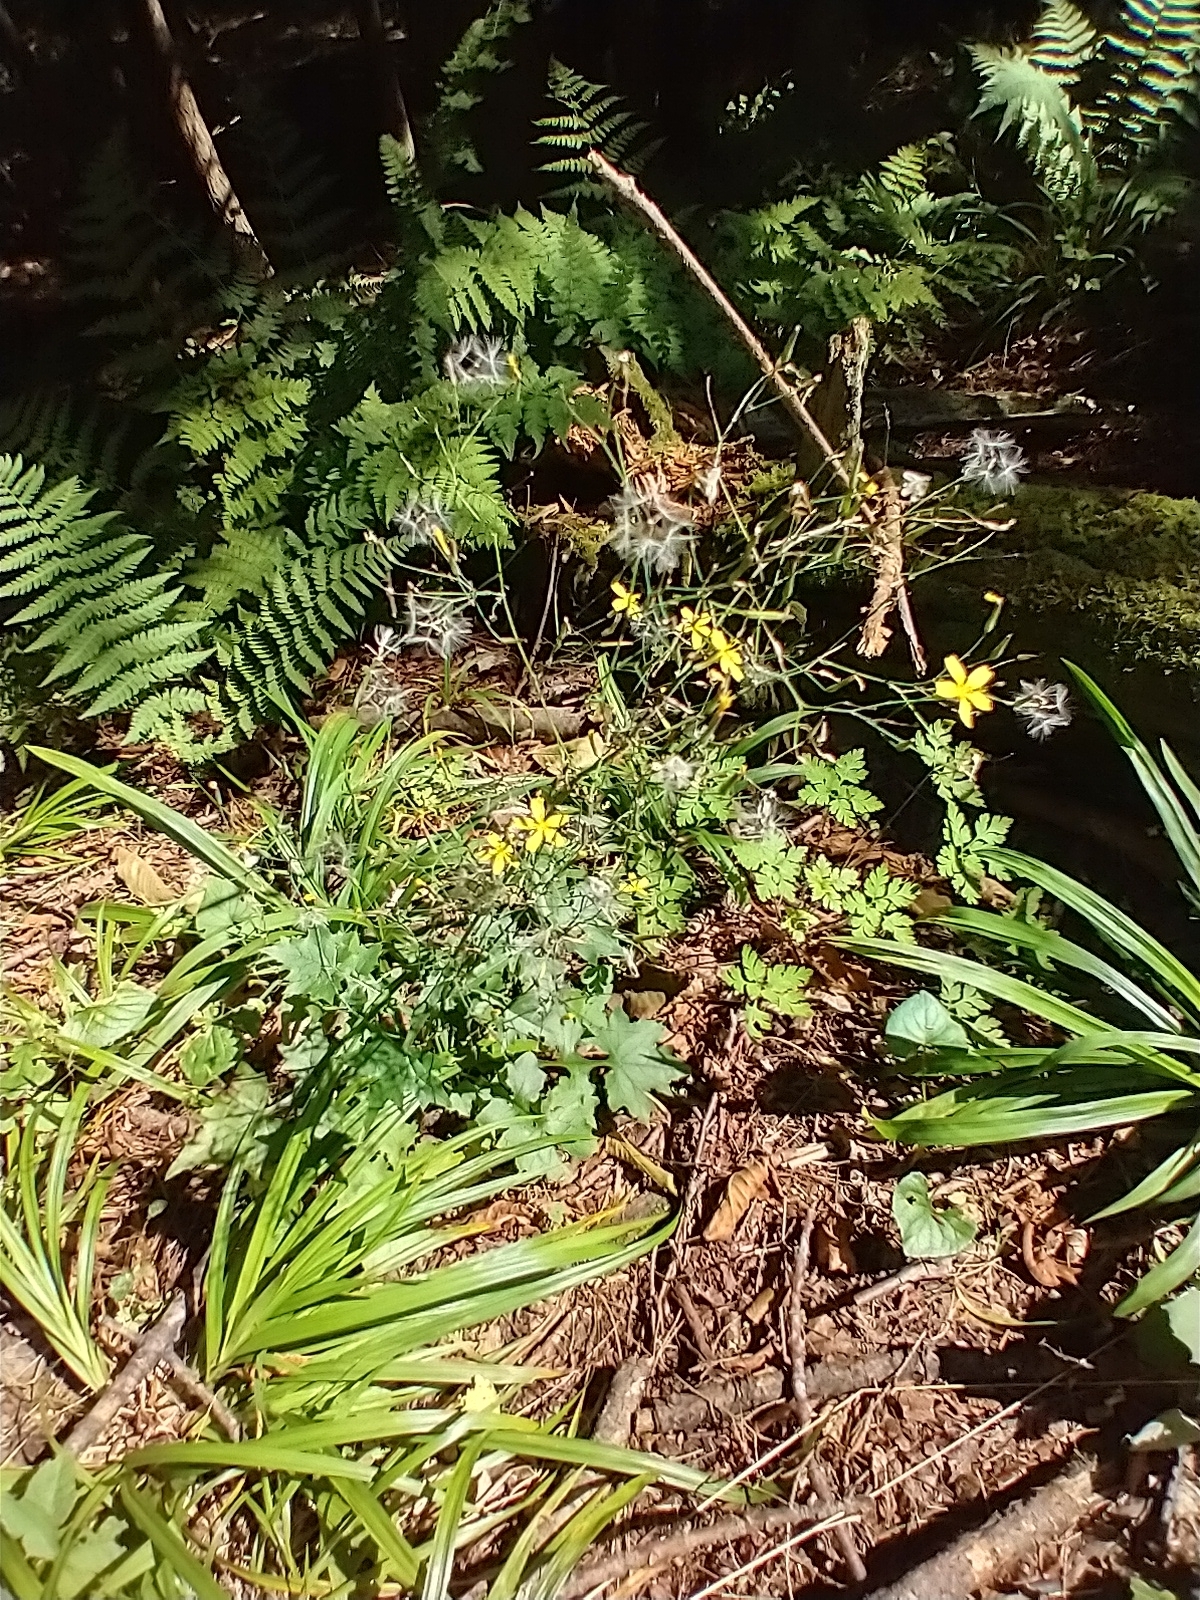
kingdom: Plantae
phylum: Tracheophyta
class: Magnoliopsida
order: Asterales
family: Asteraceae
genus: Mycelis
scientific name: Mycelis muralis
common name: Wall lettuce
